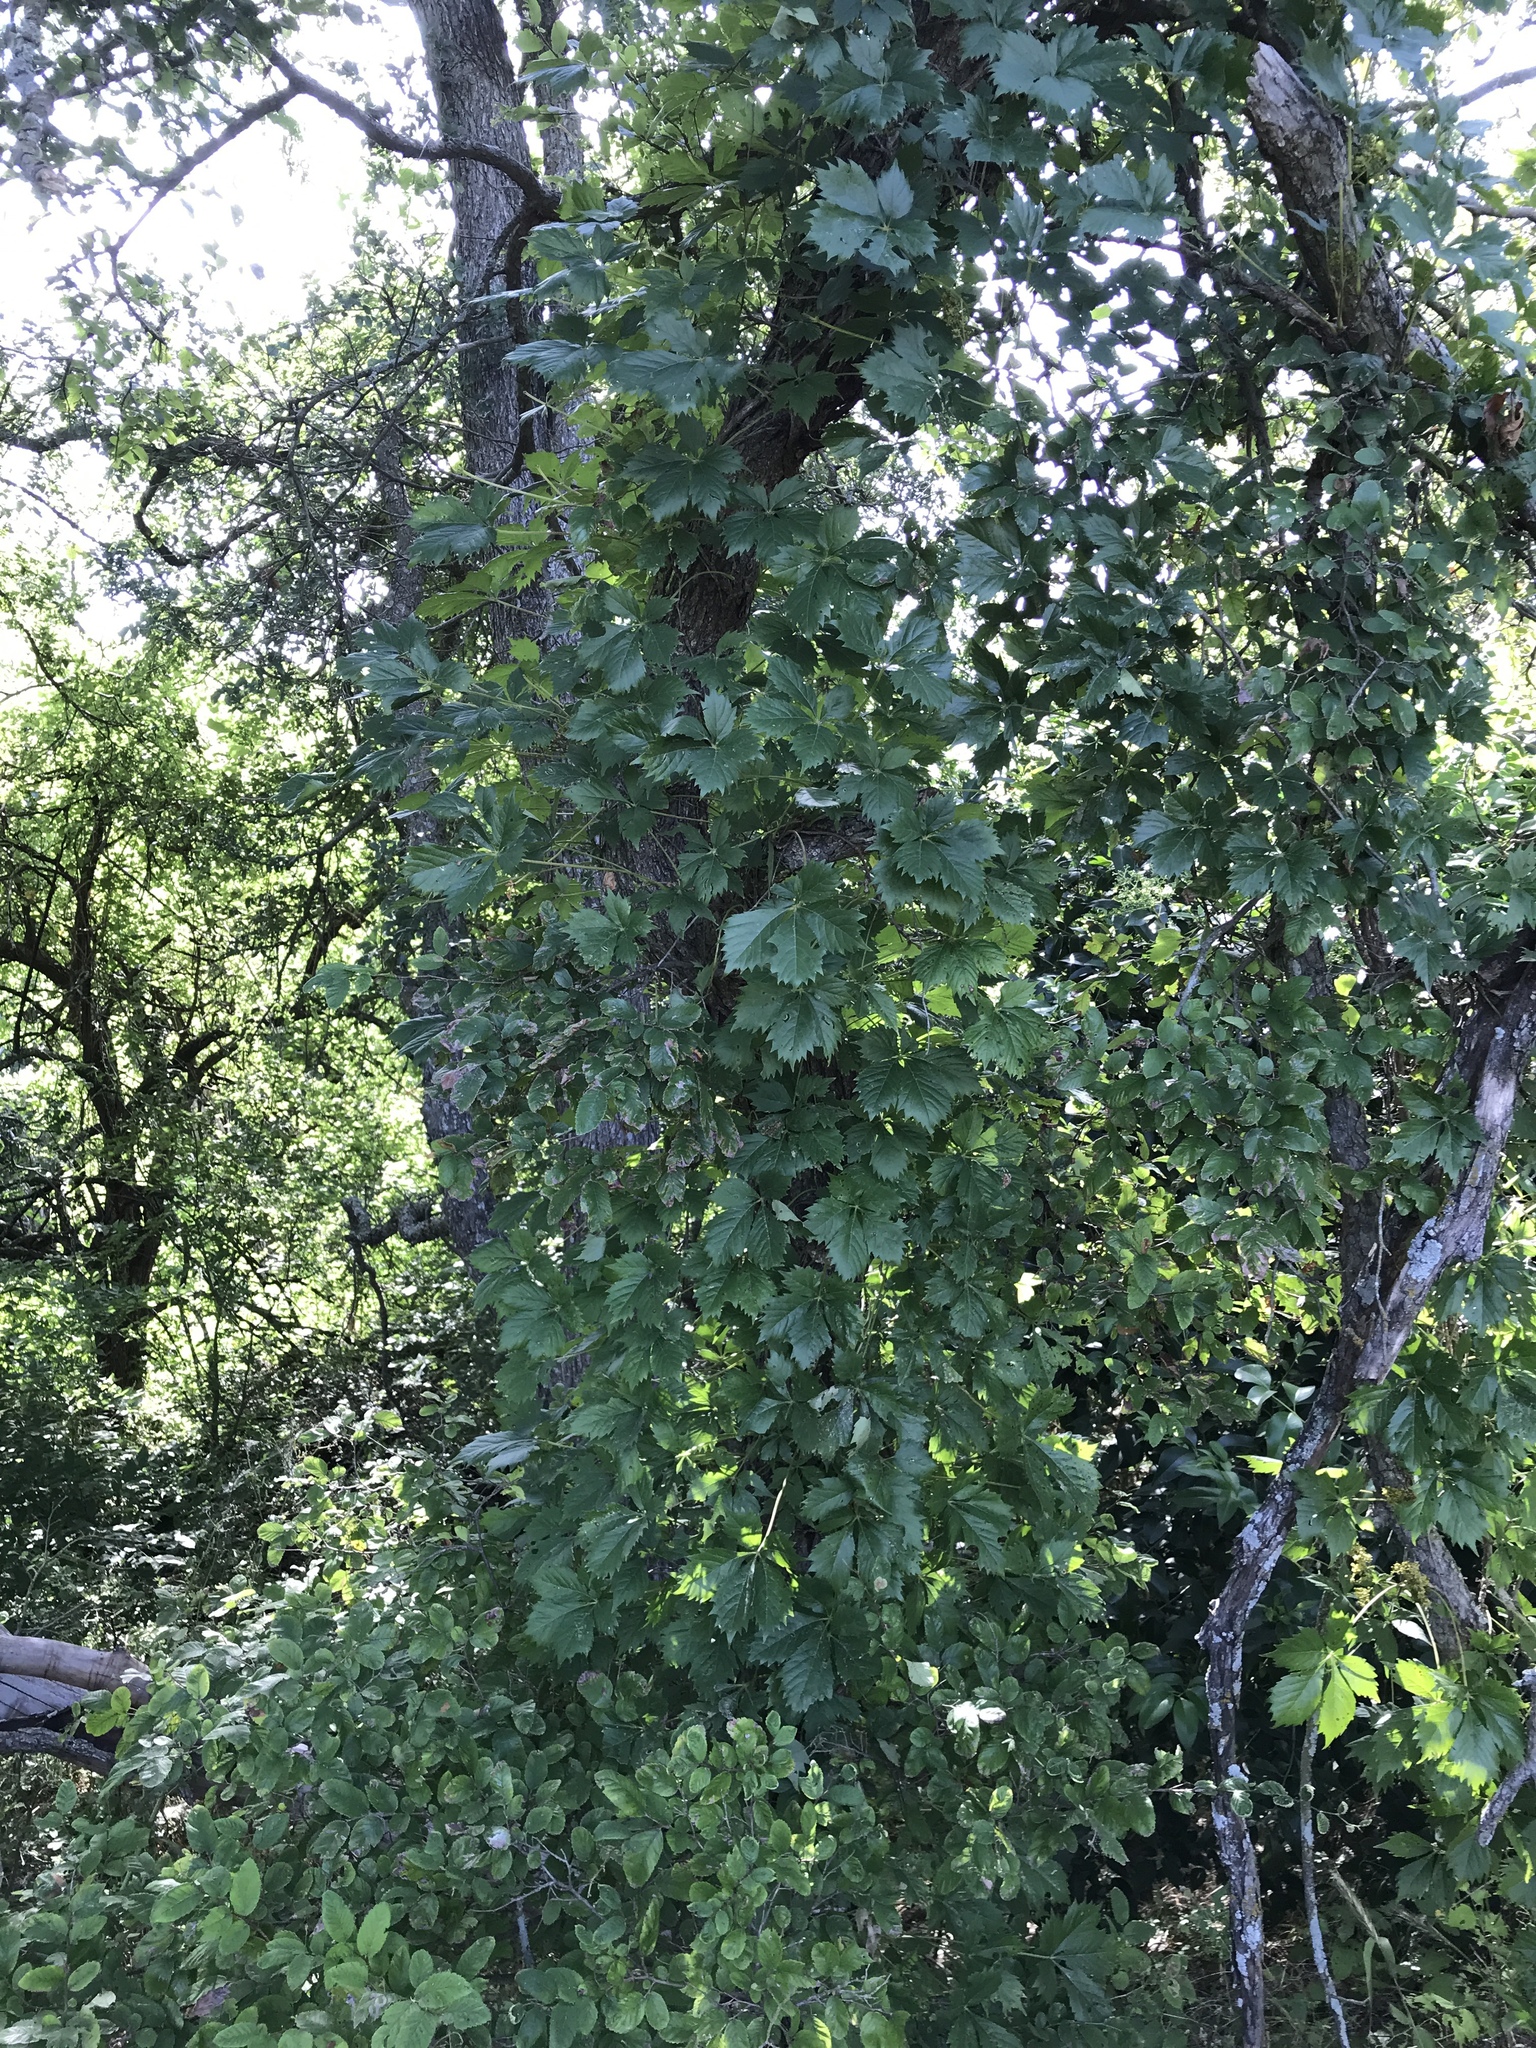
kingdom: Plantae
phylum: Tracheophyta
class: Magnoliopsida
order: Vitales
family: Vitaceae
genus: Parthenocissus
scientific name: Parthenocissus quinquefolia
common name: Virginia-creeper
